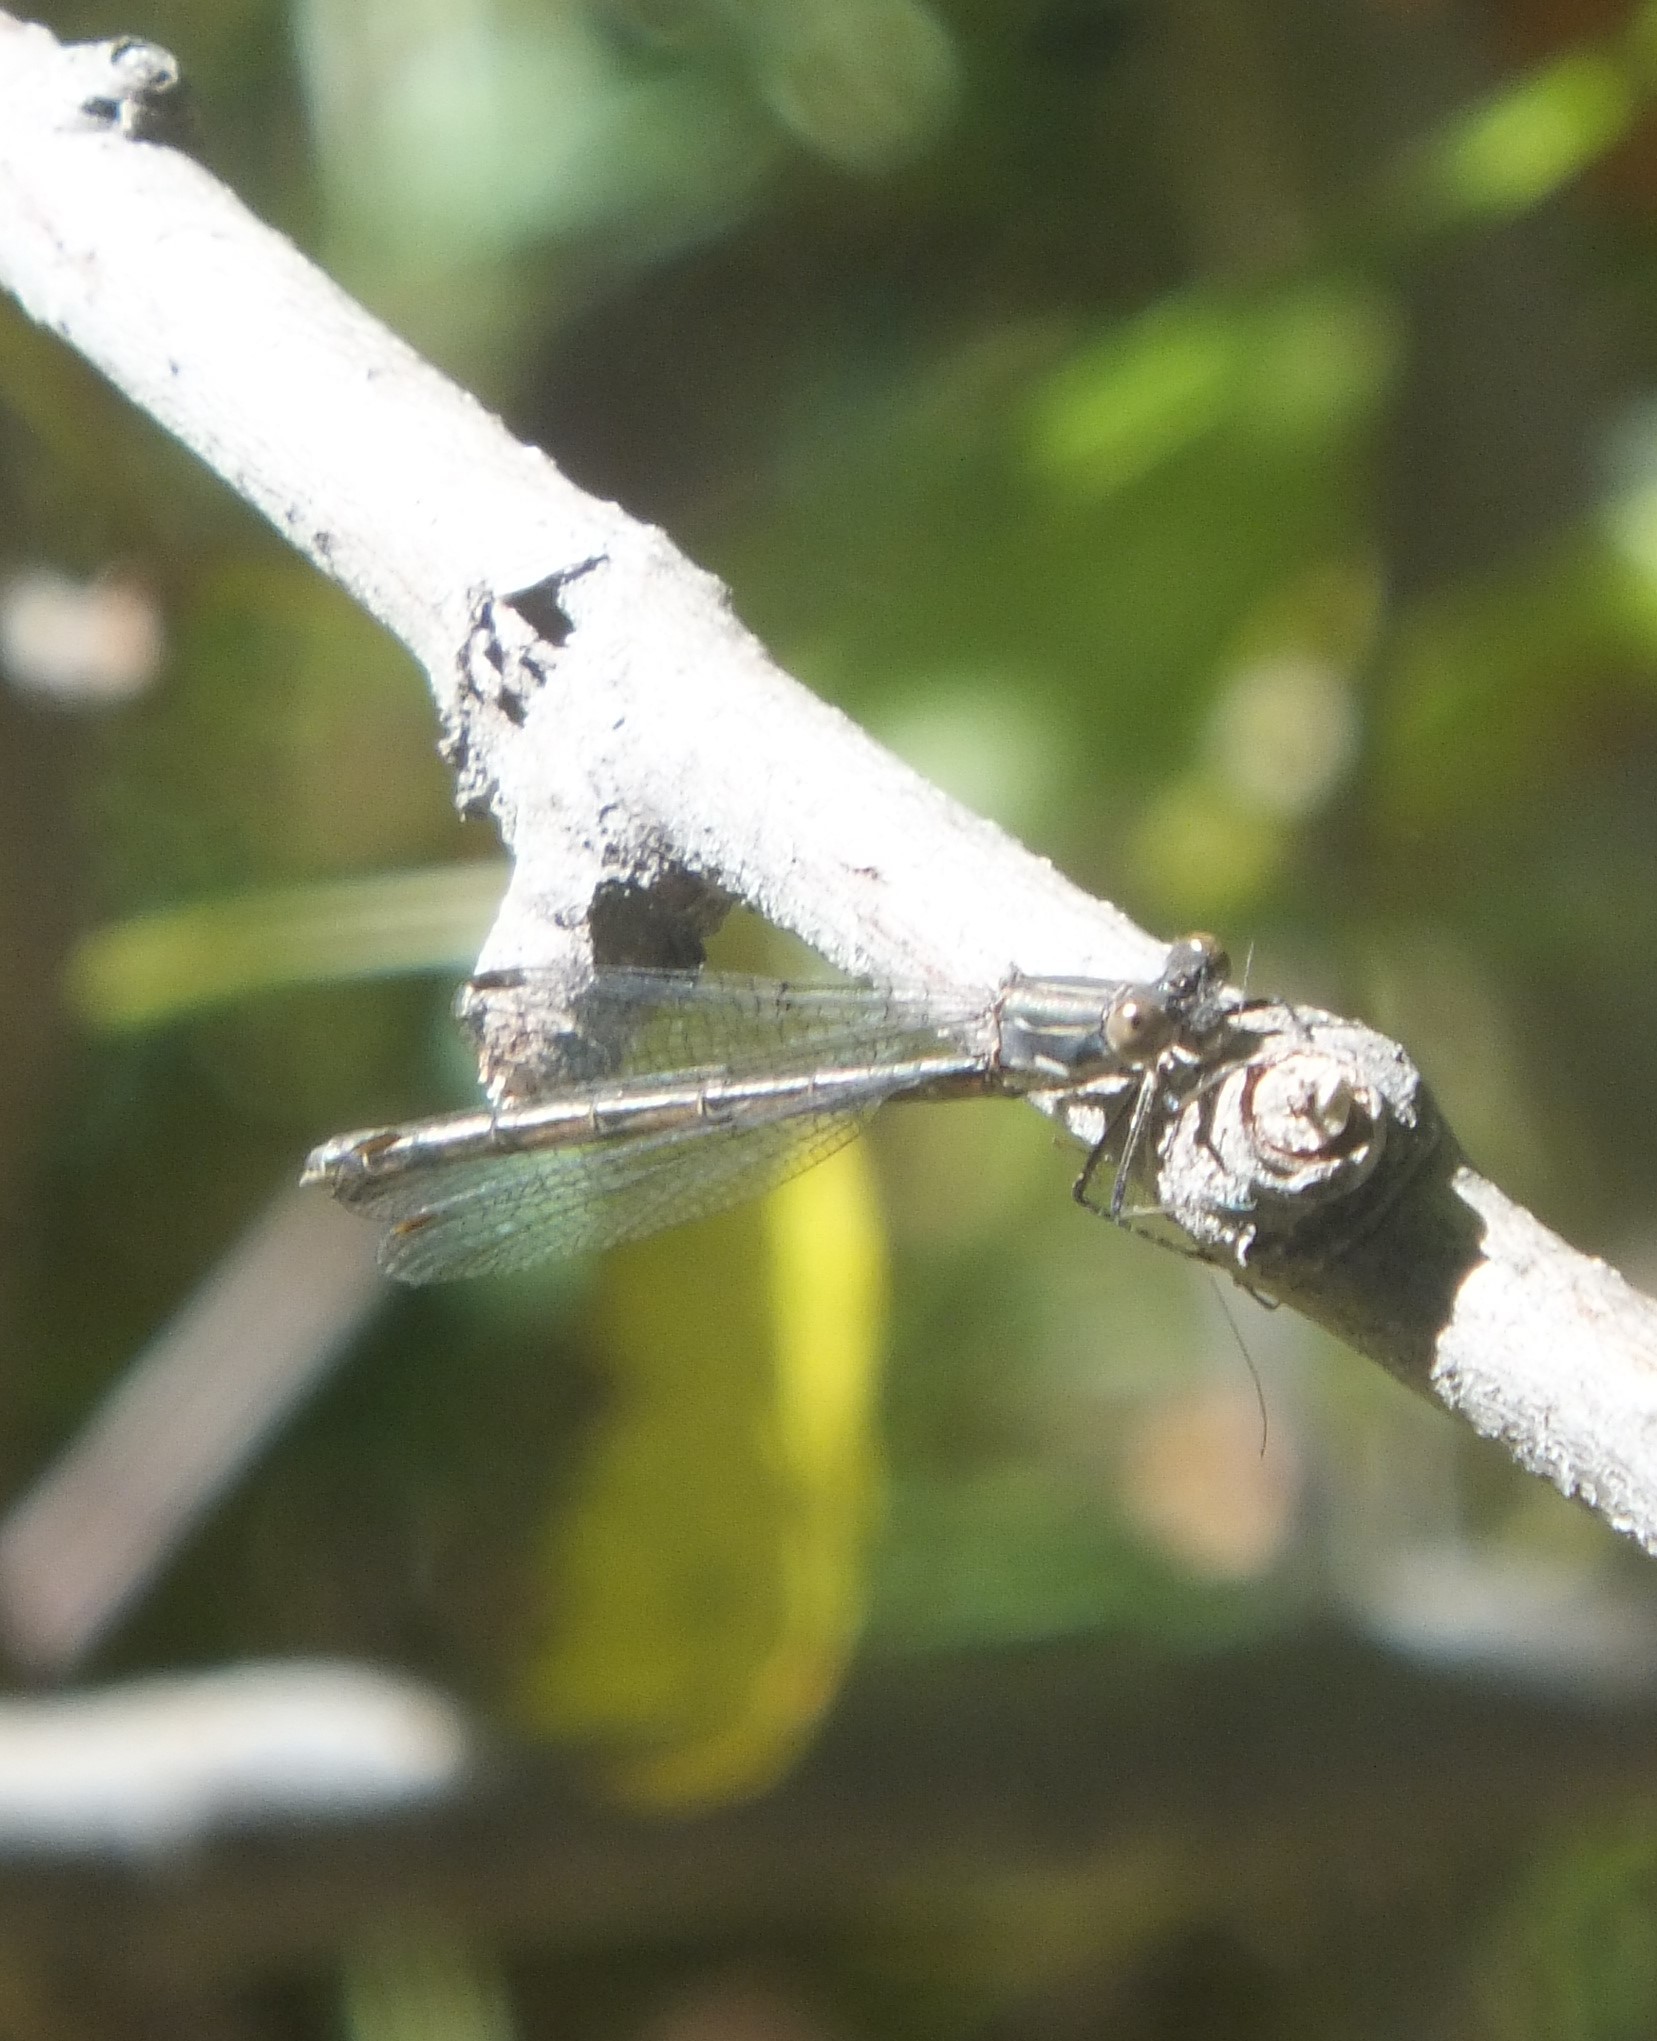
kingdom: Animalia
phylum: Arthropoda
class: Insecta
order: Odonata
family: Lestidae
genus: Lestes
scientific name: Lestes congener
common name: Spotted spreadwing
